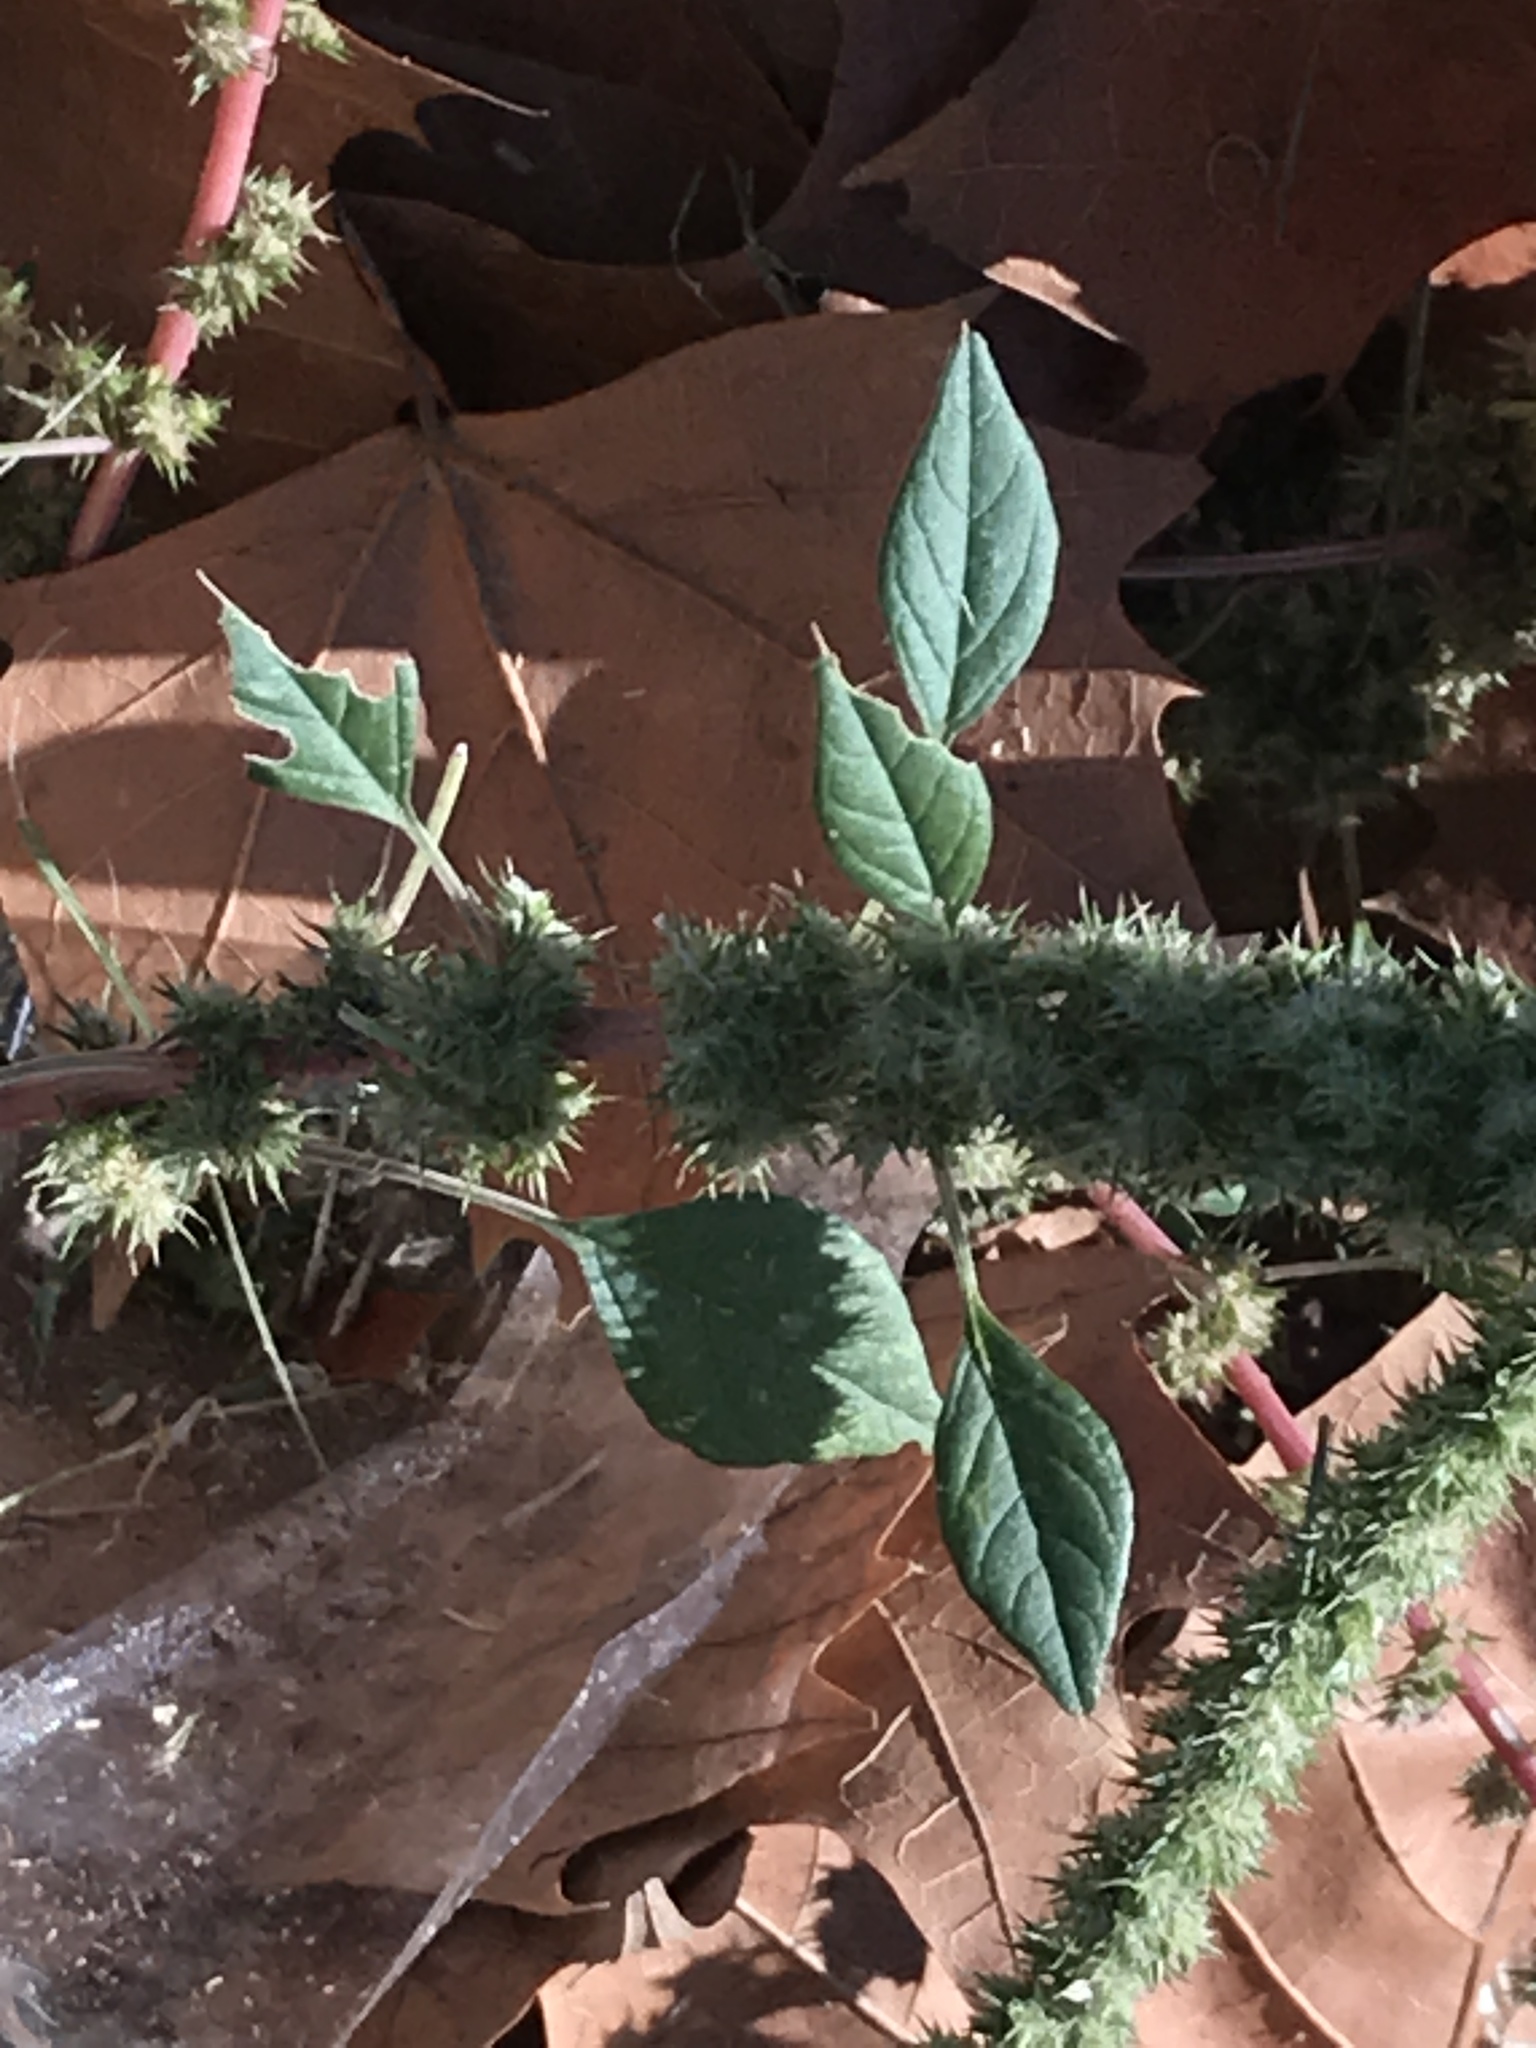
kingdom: Plantae
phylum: Tracheophyta
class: Magnoliopsida
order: Caryophyllales
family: Amaranthaceae
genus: Amaranthus
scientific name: Amaranthus palmeri
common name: Dioecious amaranth
